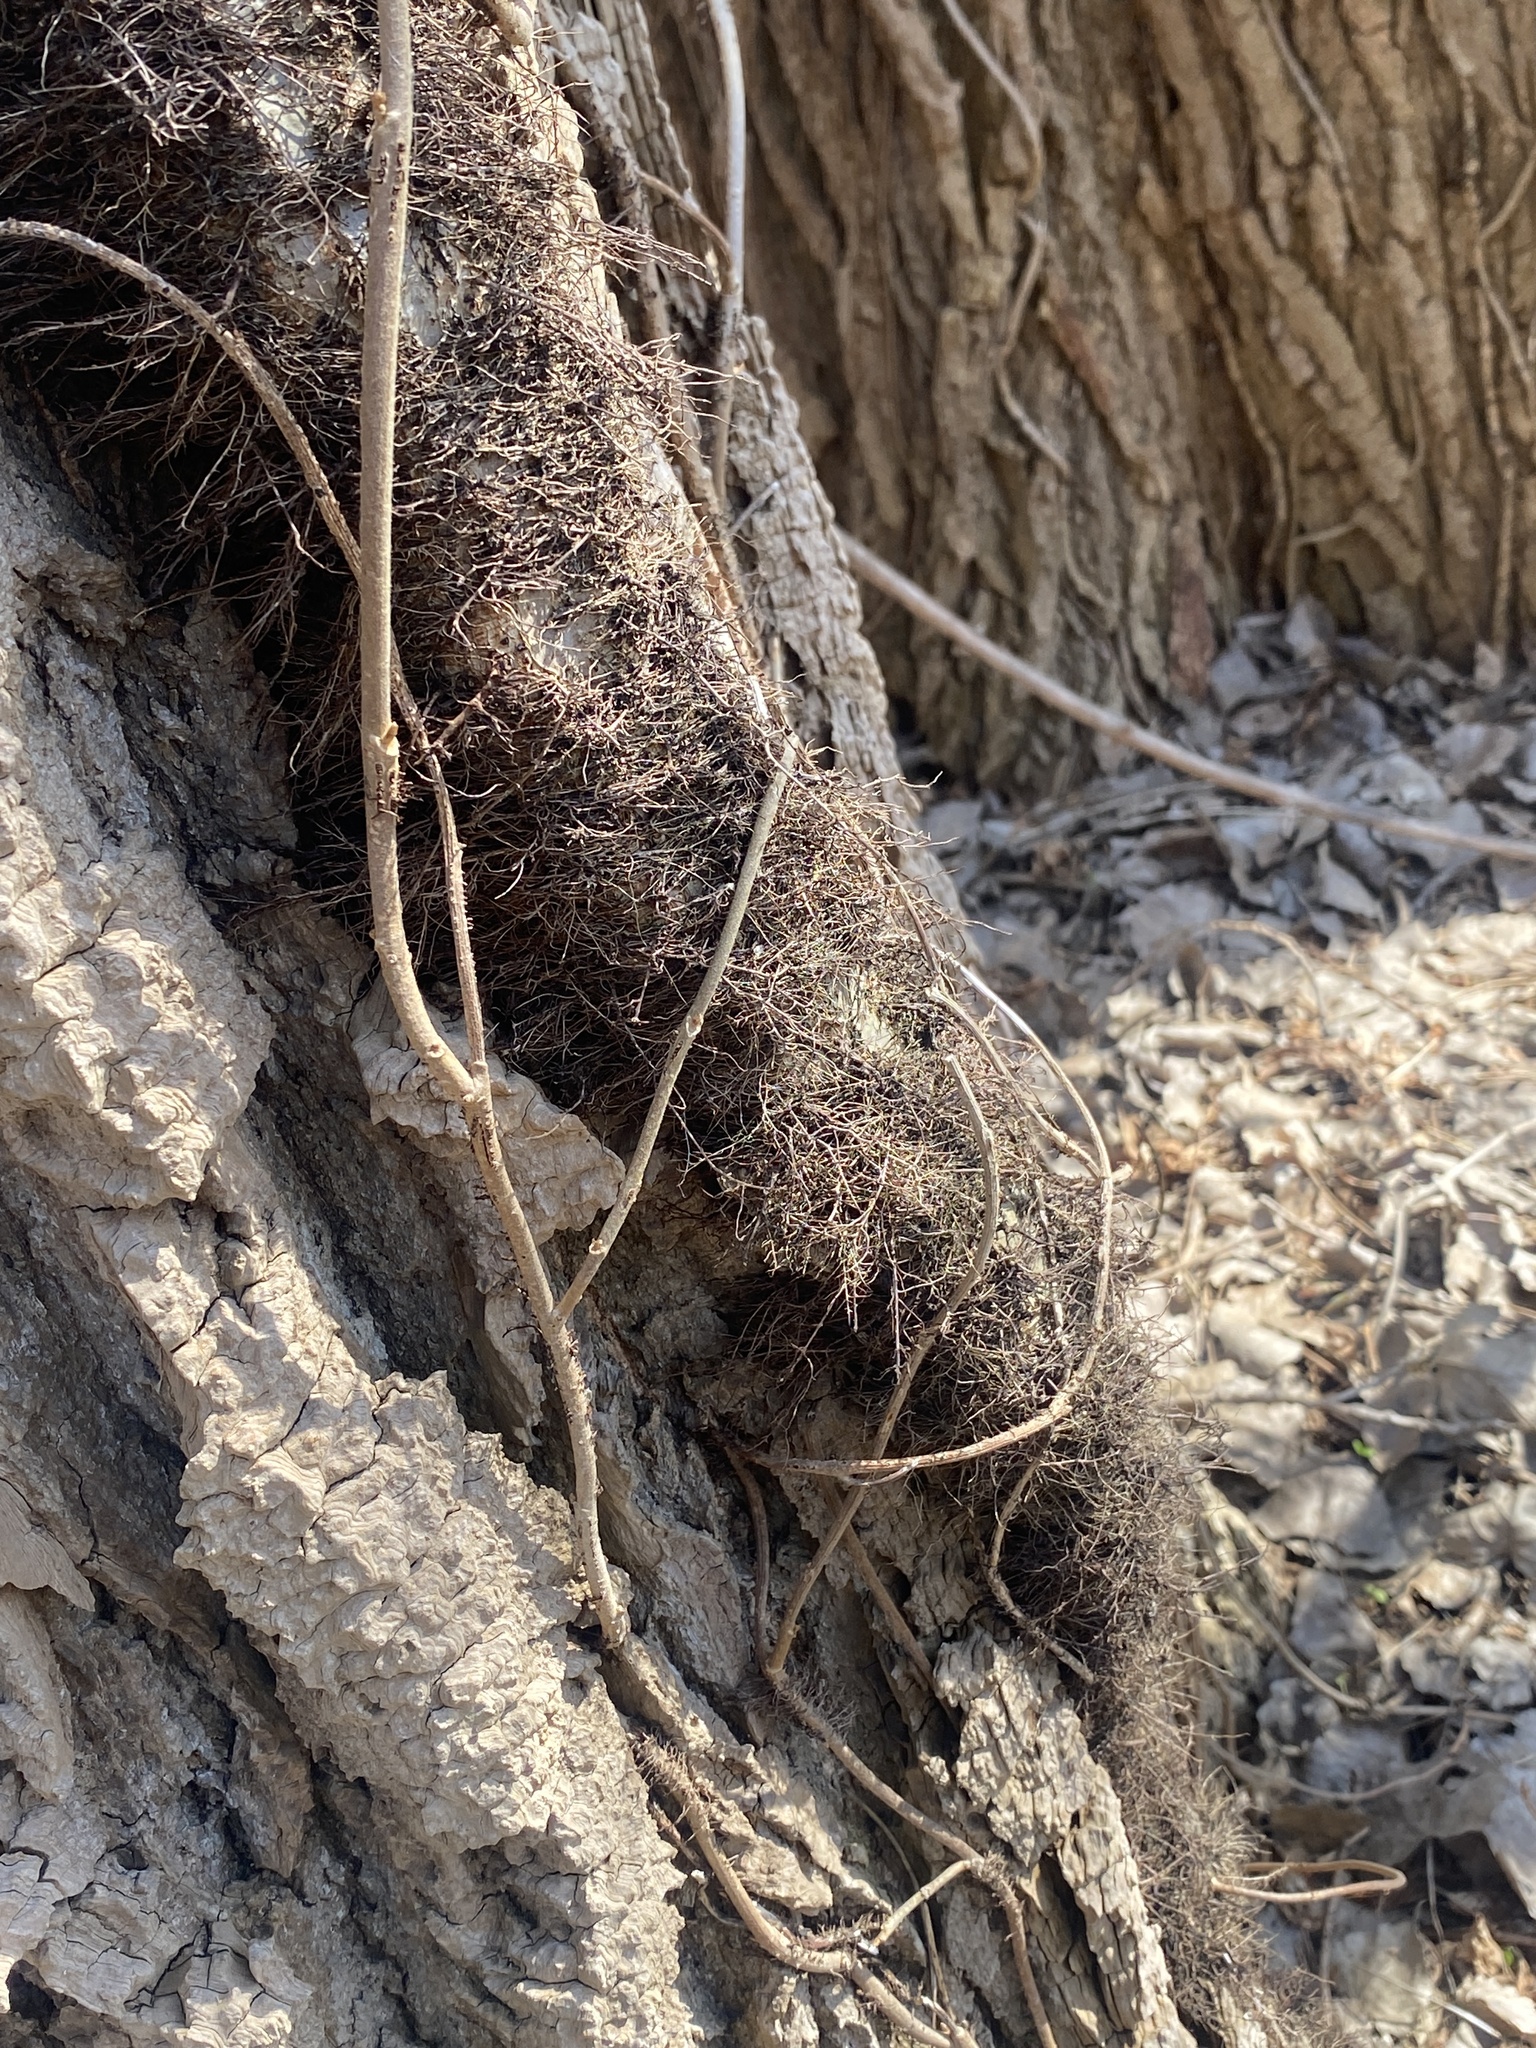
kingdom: Plantae
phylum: Tracheophyta
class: Magnoliopsida
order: Sapindales
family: Anacardiaceae
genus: Toxicodendron
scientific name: Toxicodendron radicans
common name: Poison ivy
